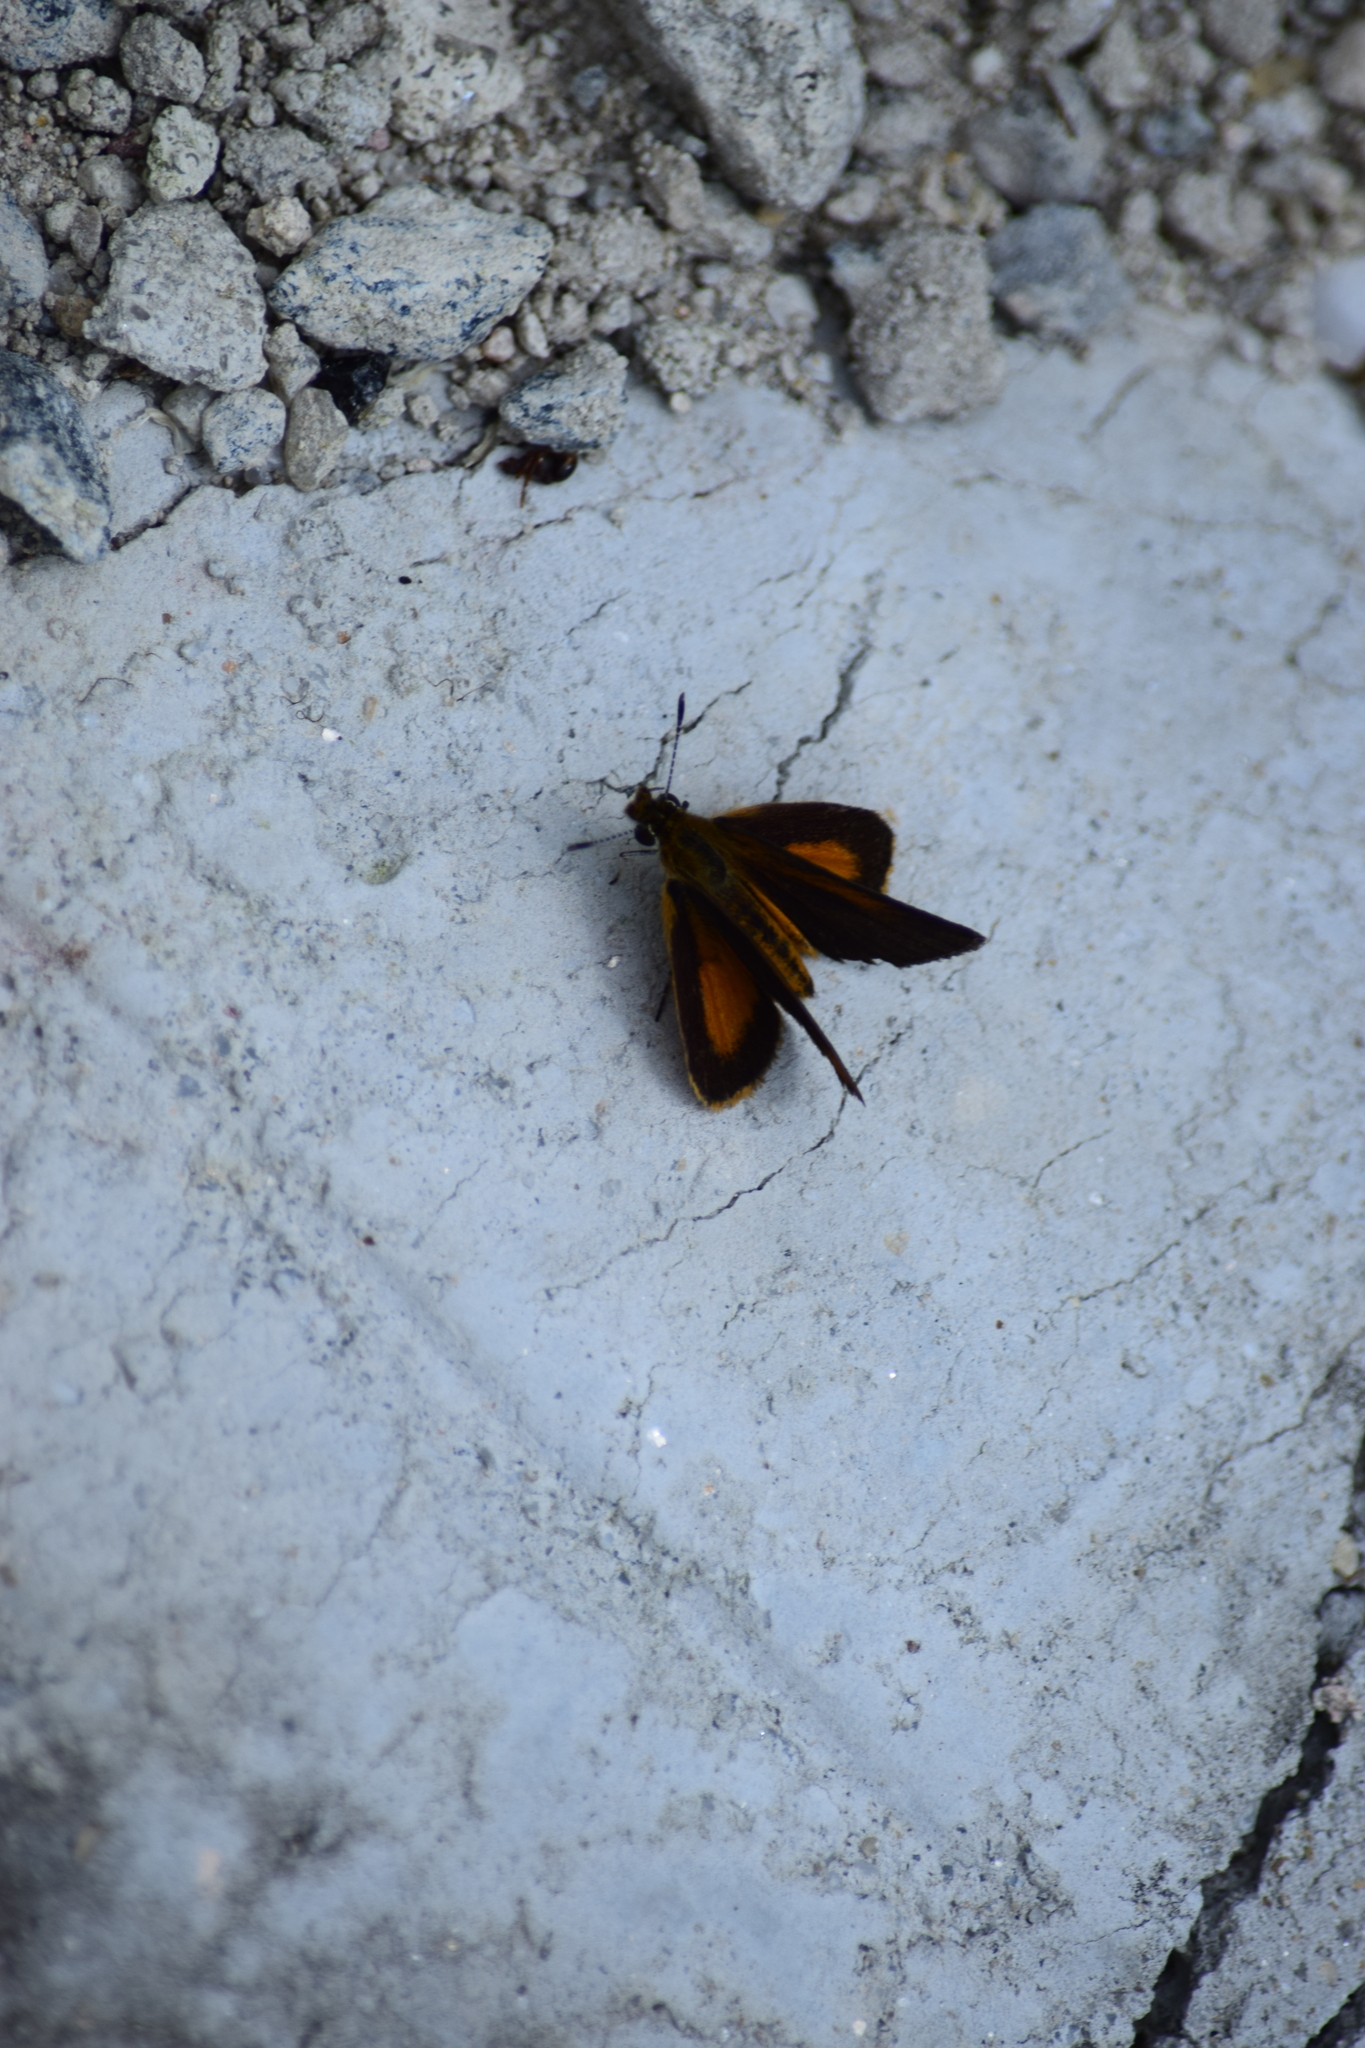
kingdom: Animalia
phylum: Arthropoda
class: Insecta
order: Lepidoptera
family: Hesperiidae
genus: Ancyloxypha
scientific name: Ancyloxypha numitor
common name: Least skipper
